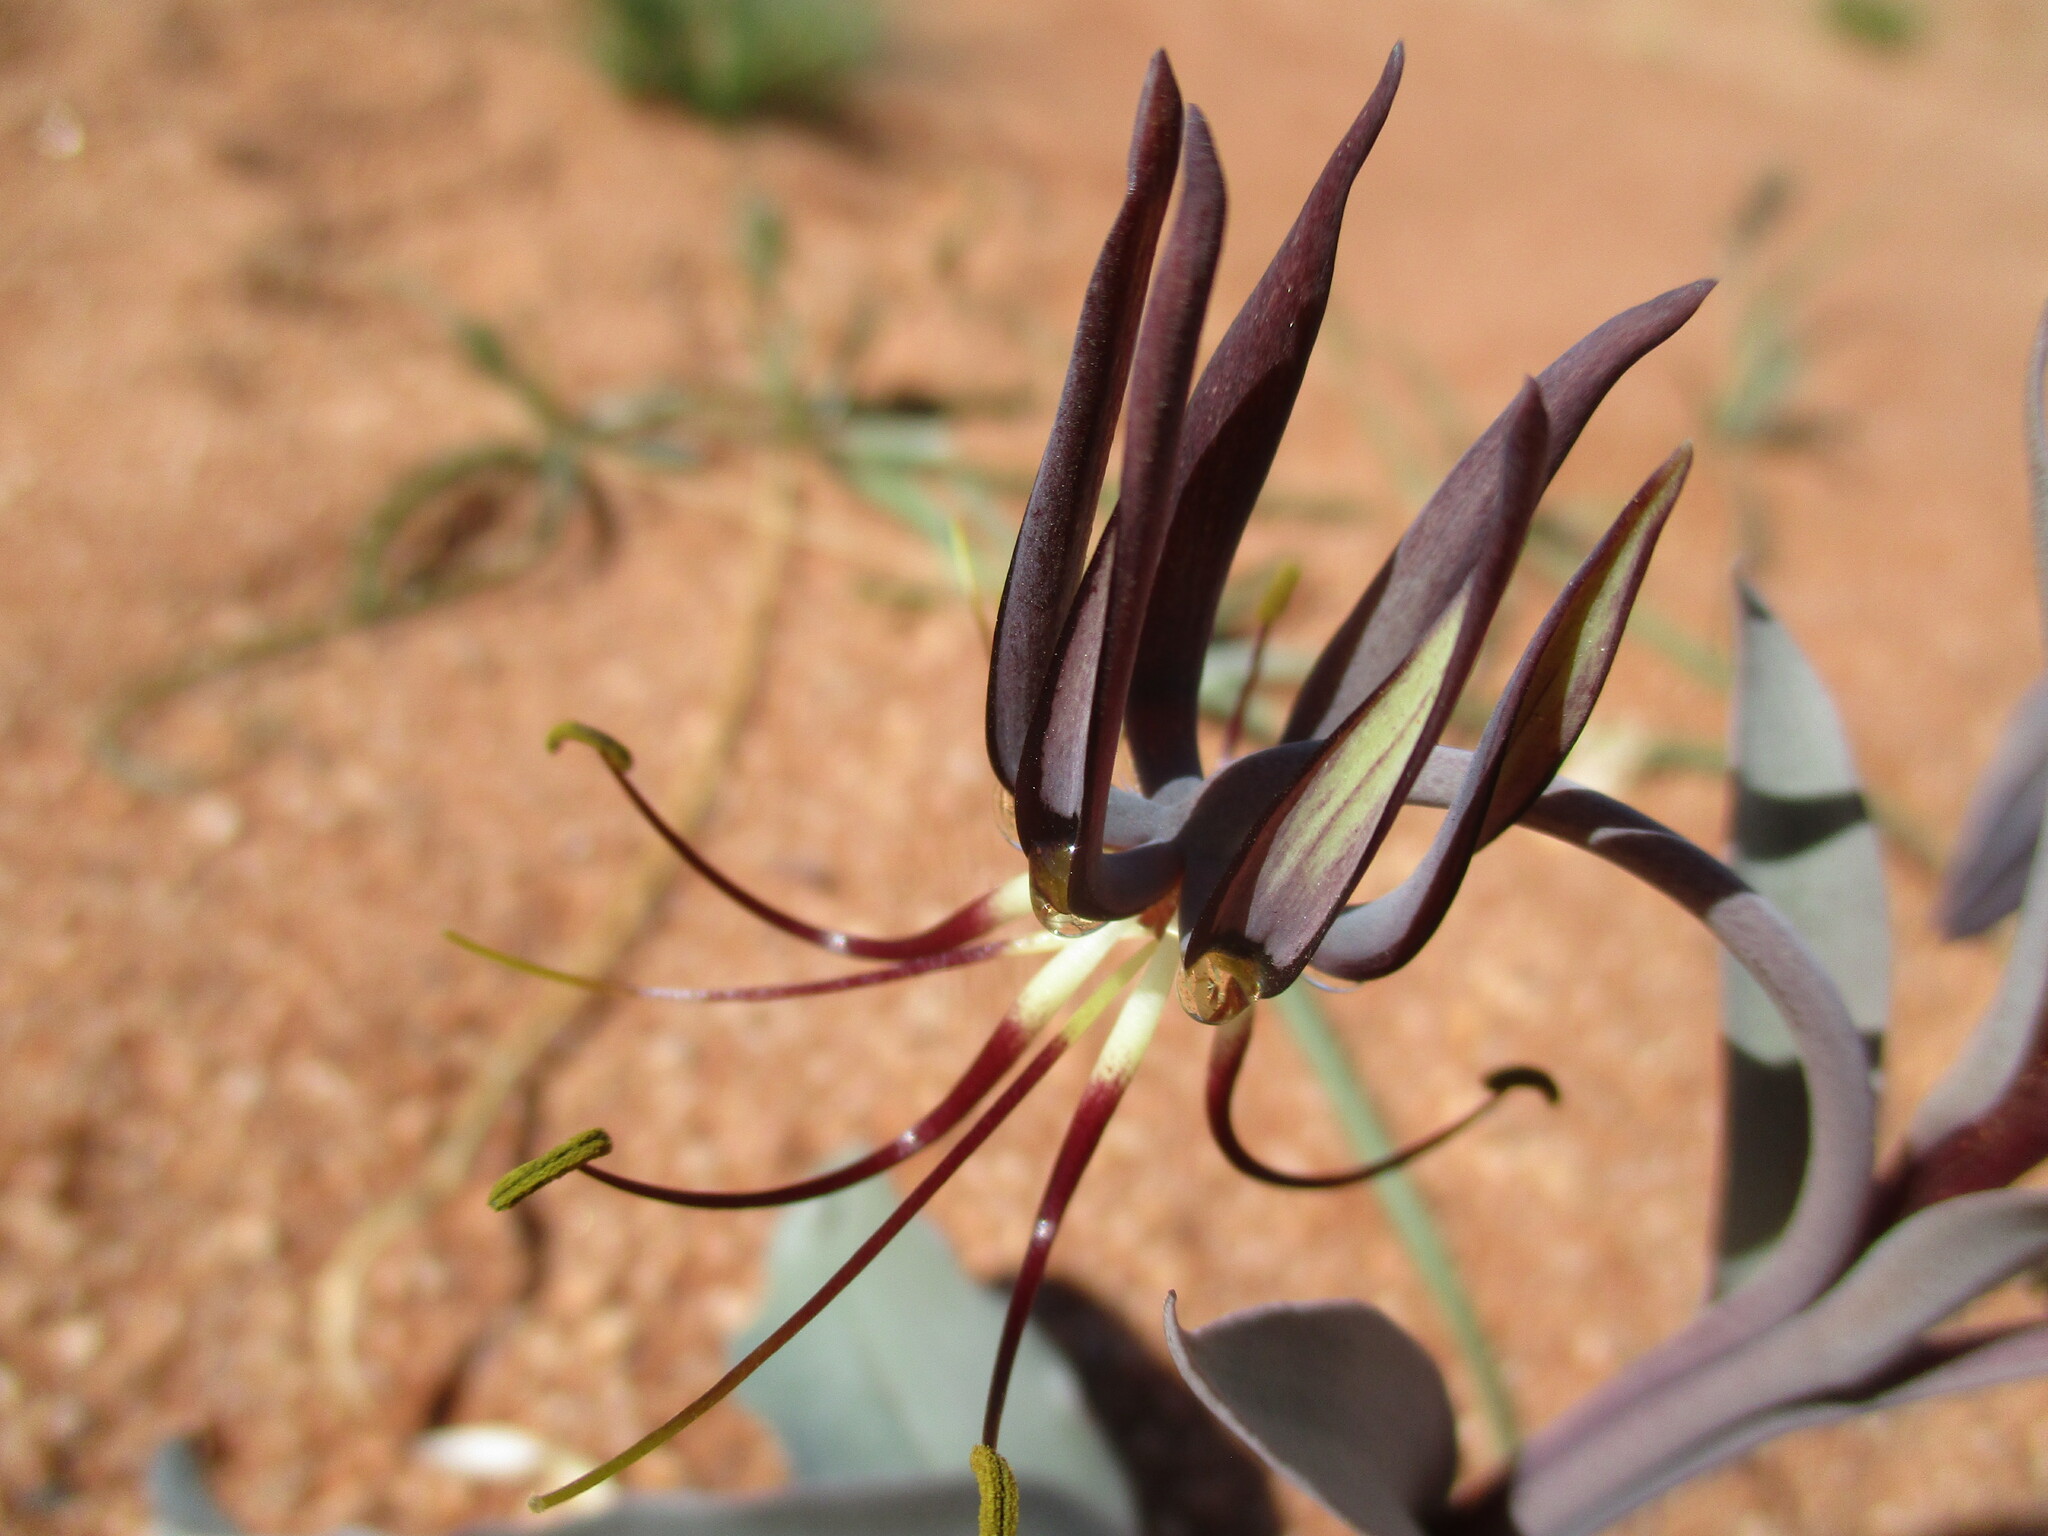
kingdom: Plantae
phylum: Tracheophyta
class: Liliopsida
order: Liliales
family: Colchicaceae
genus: Ornithoglossum
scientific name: Ornithoglossum vulgare
